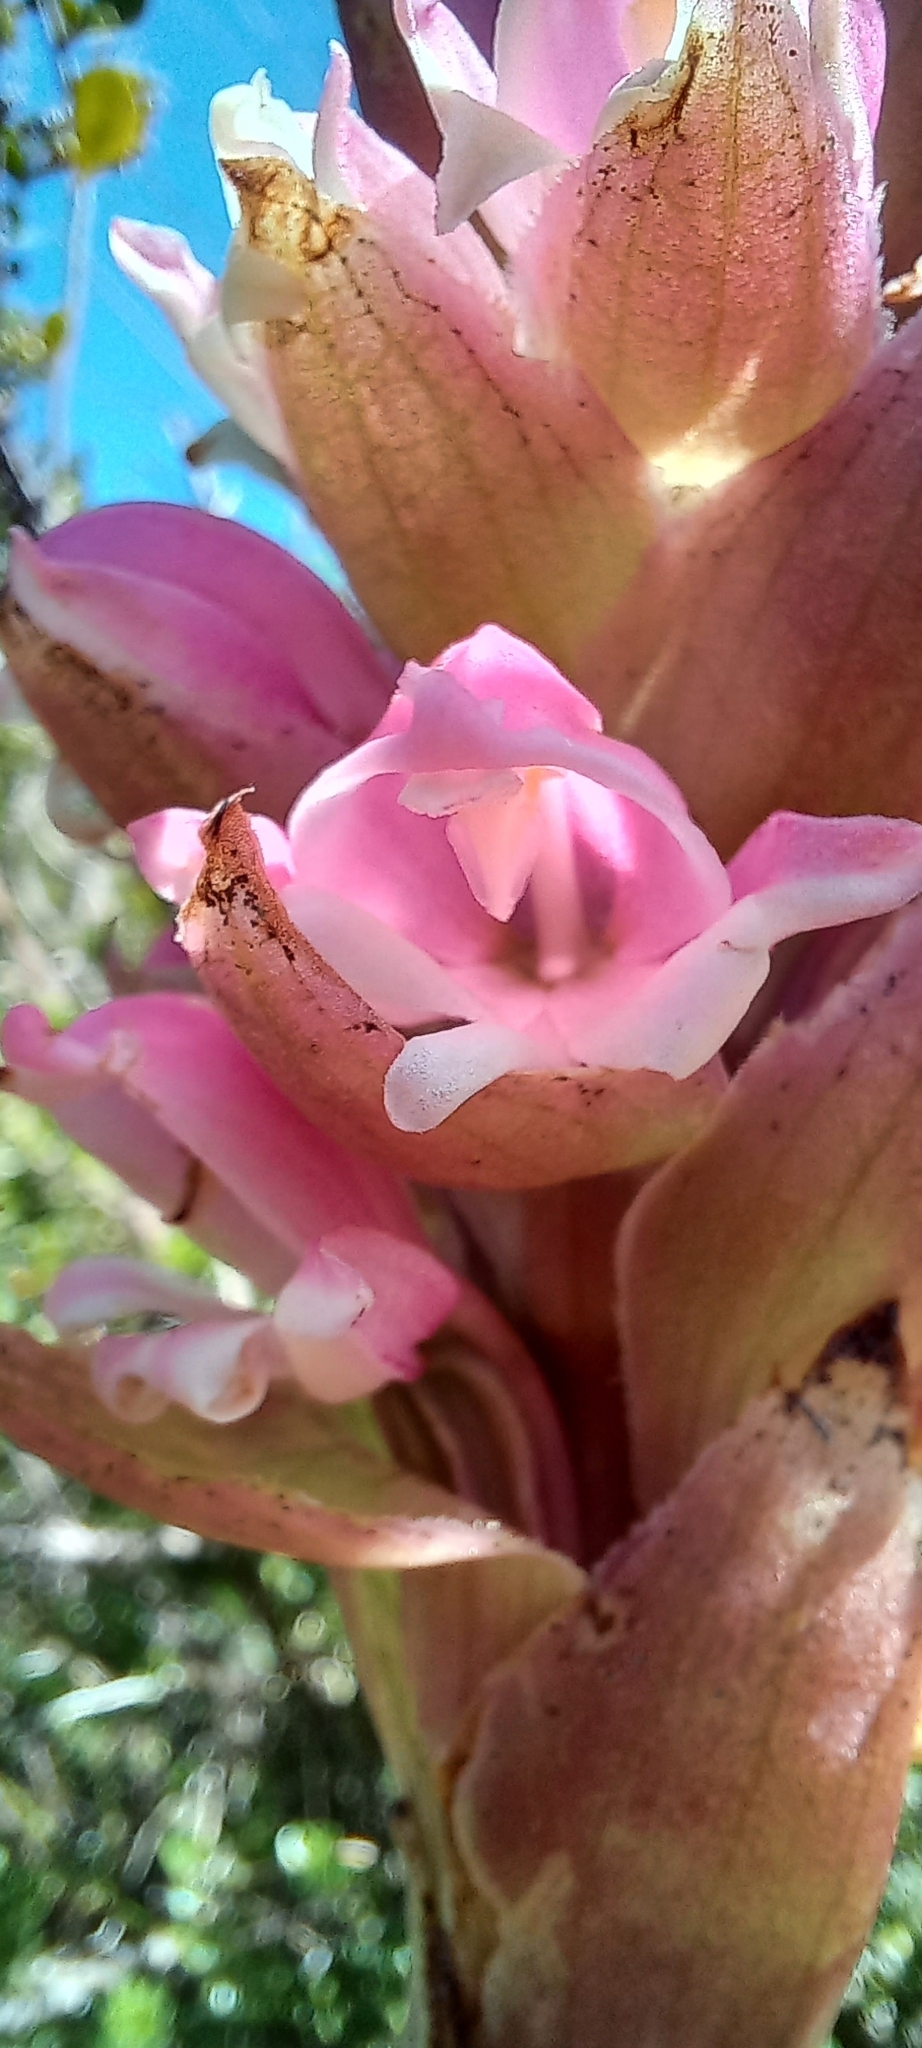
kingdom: Plantae
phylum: Tracheophyta
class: Liliopsida
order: Asparagales
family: Orchidaceae
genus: Satyrium
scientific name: Satyrium carneum
